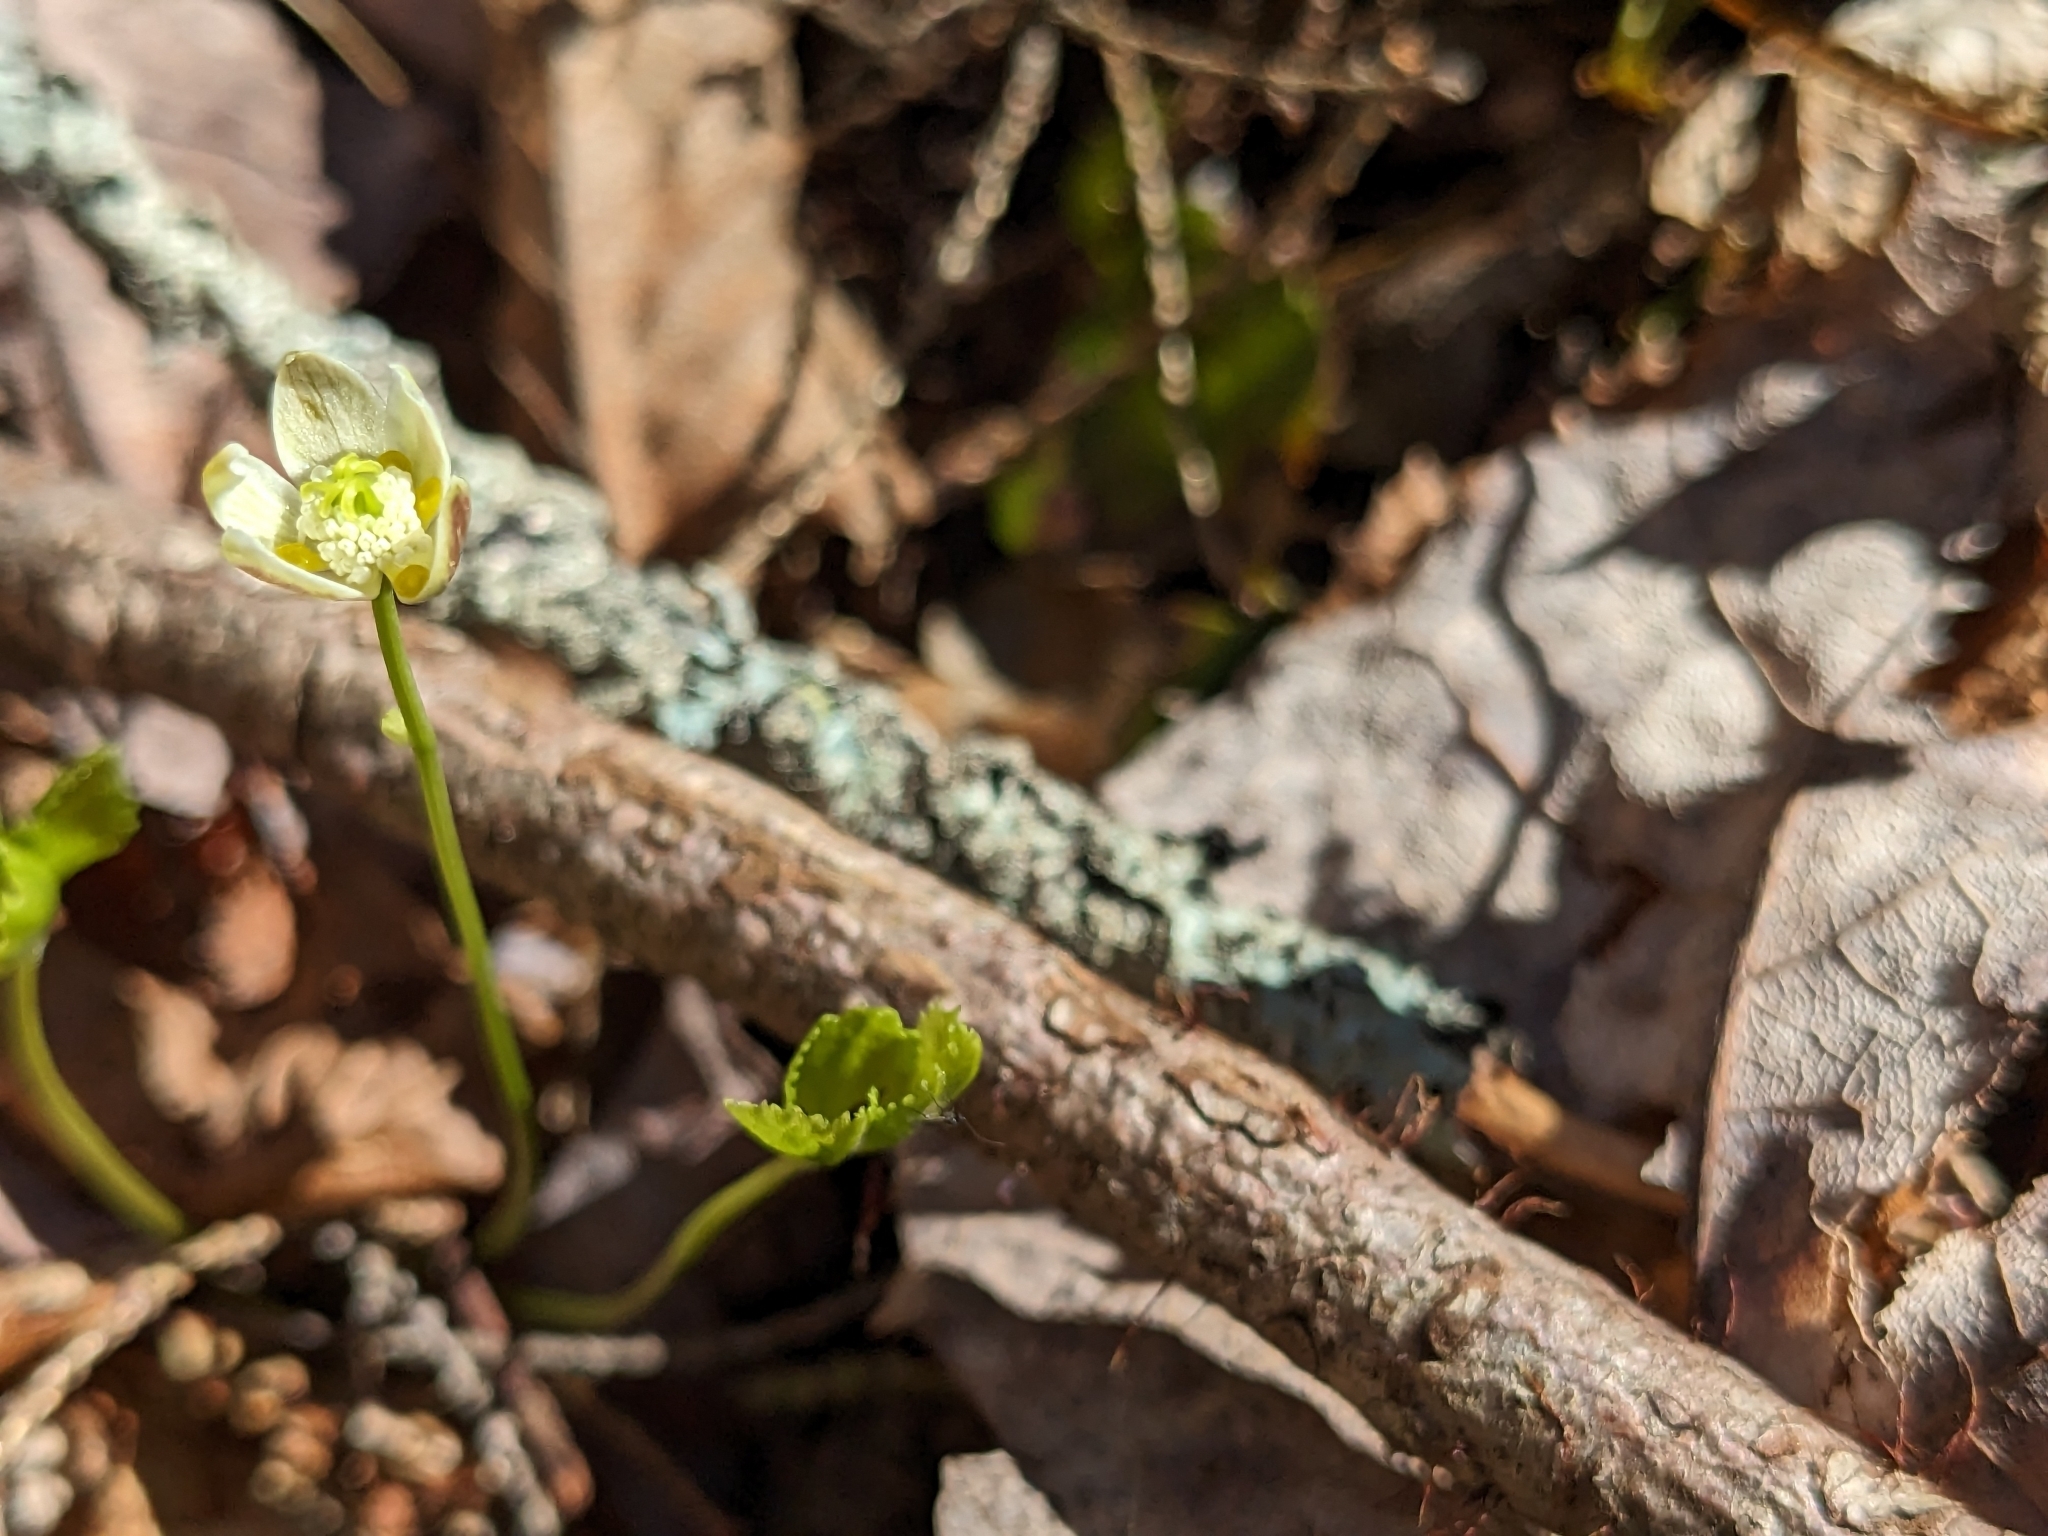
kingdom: Plantae
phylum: Tracheophyta
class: Magnoliopsida
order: Ranunculales
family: Ranunculaceae
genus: Coptis
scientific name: Coptis trifolia
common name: Canker-root
